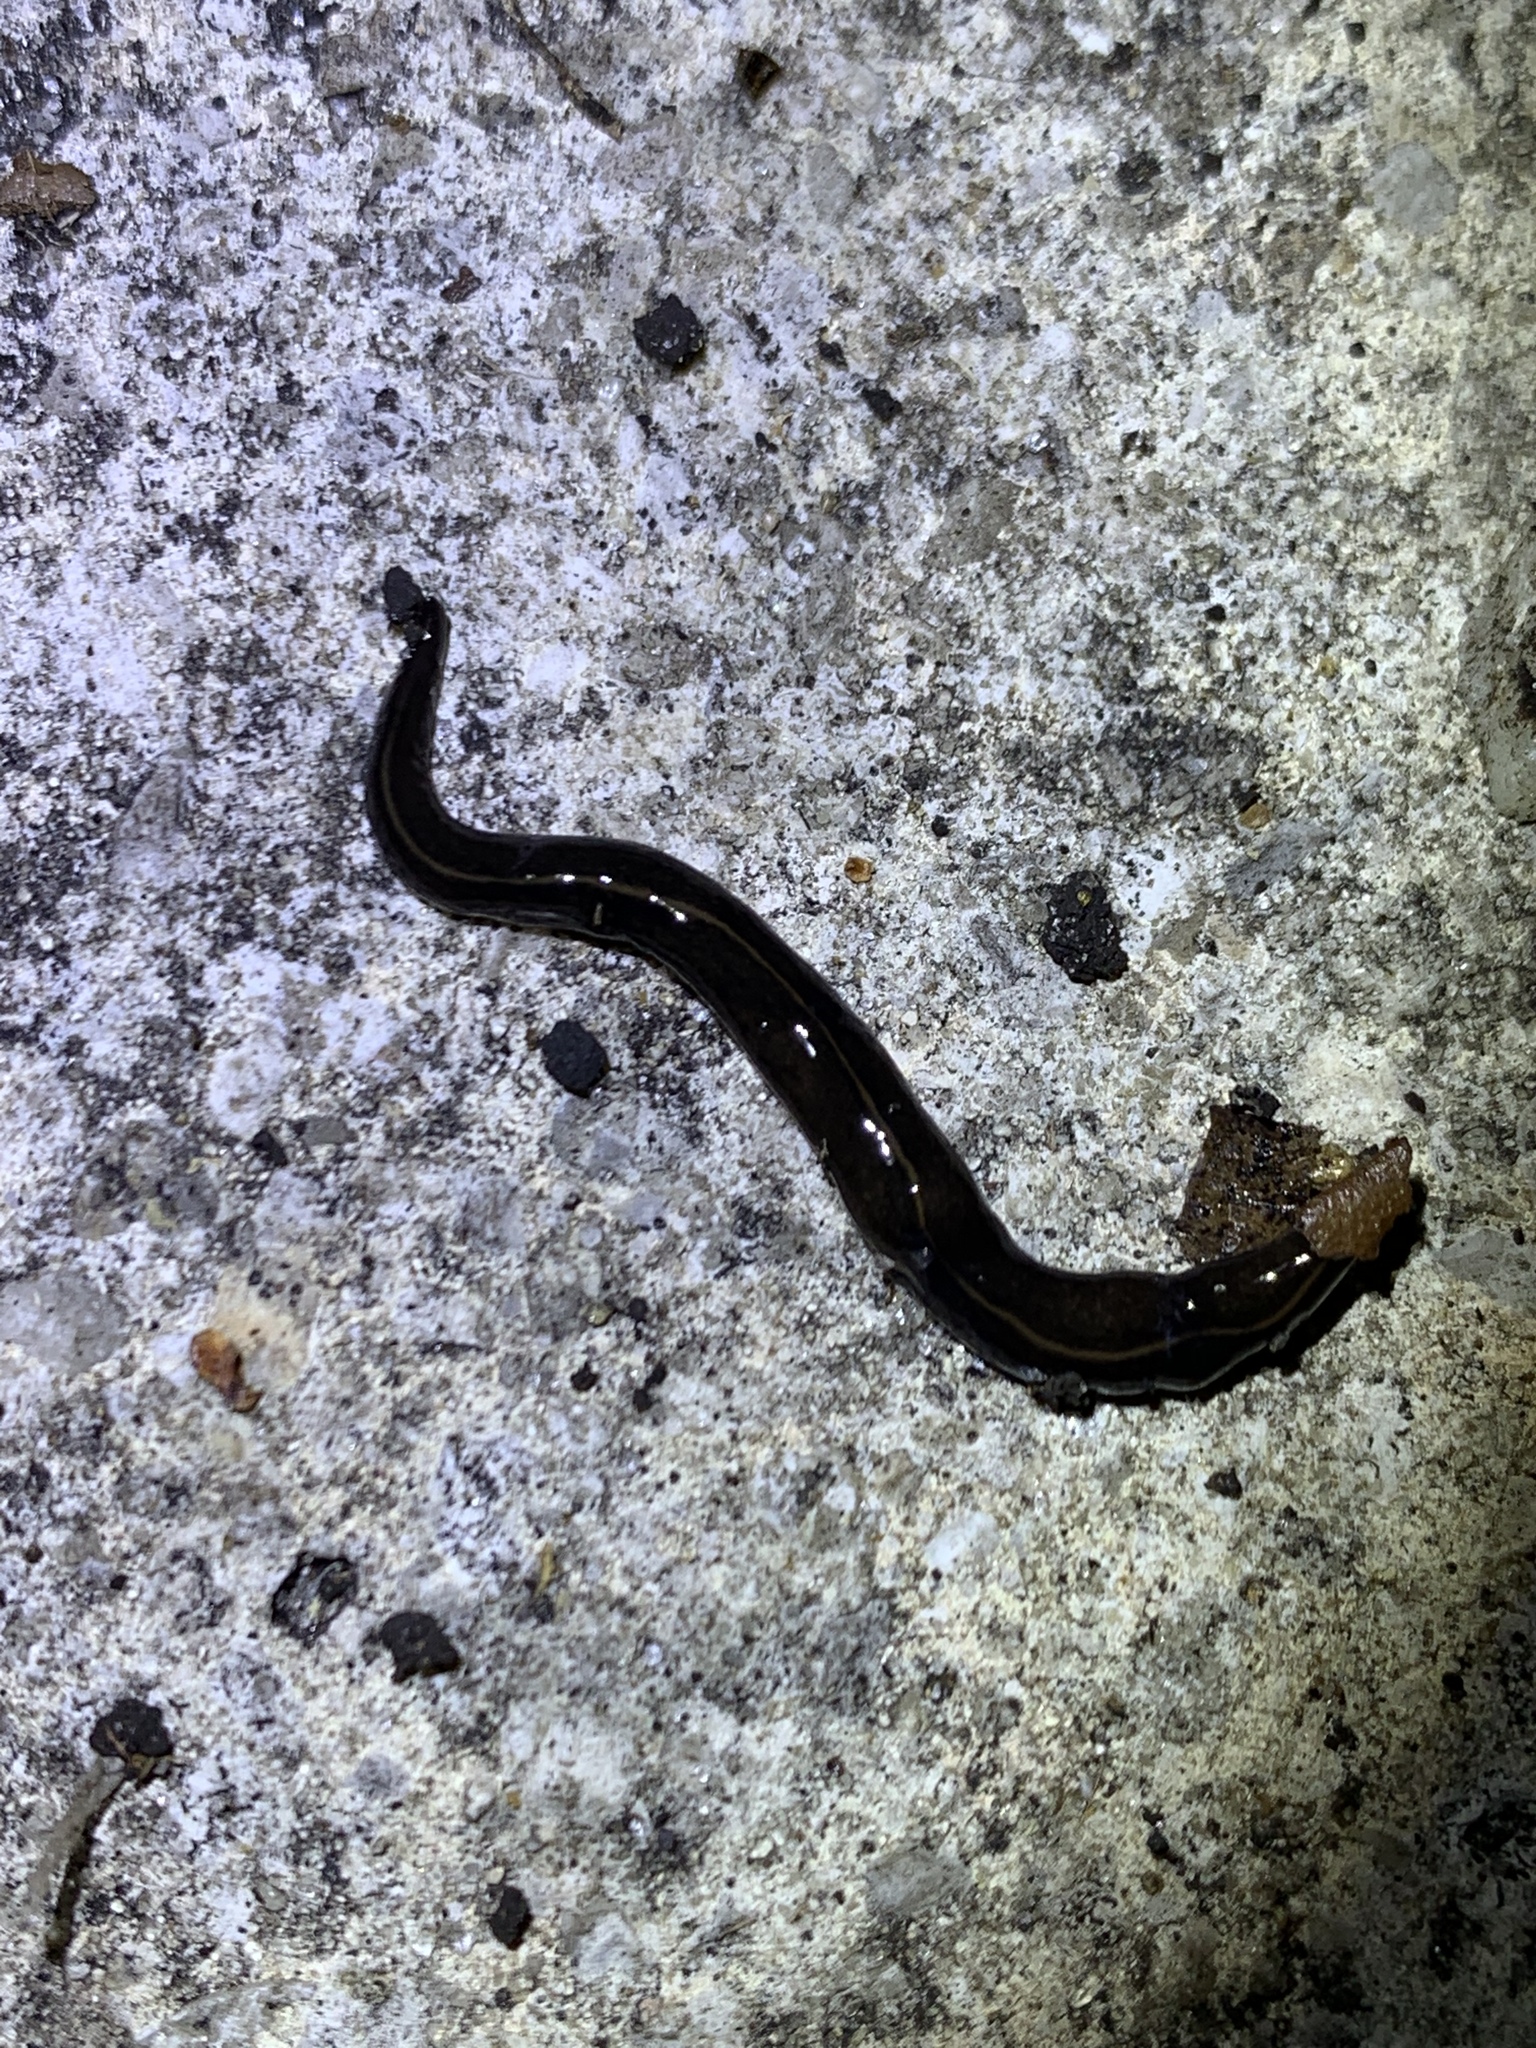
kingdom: Animalia
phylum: Platyhelminthes
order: Tricladida
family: Geoplanidae
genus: Platydemus
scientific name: Platydemus manokwari
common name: New guinea flatworm
